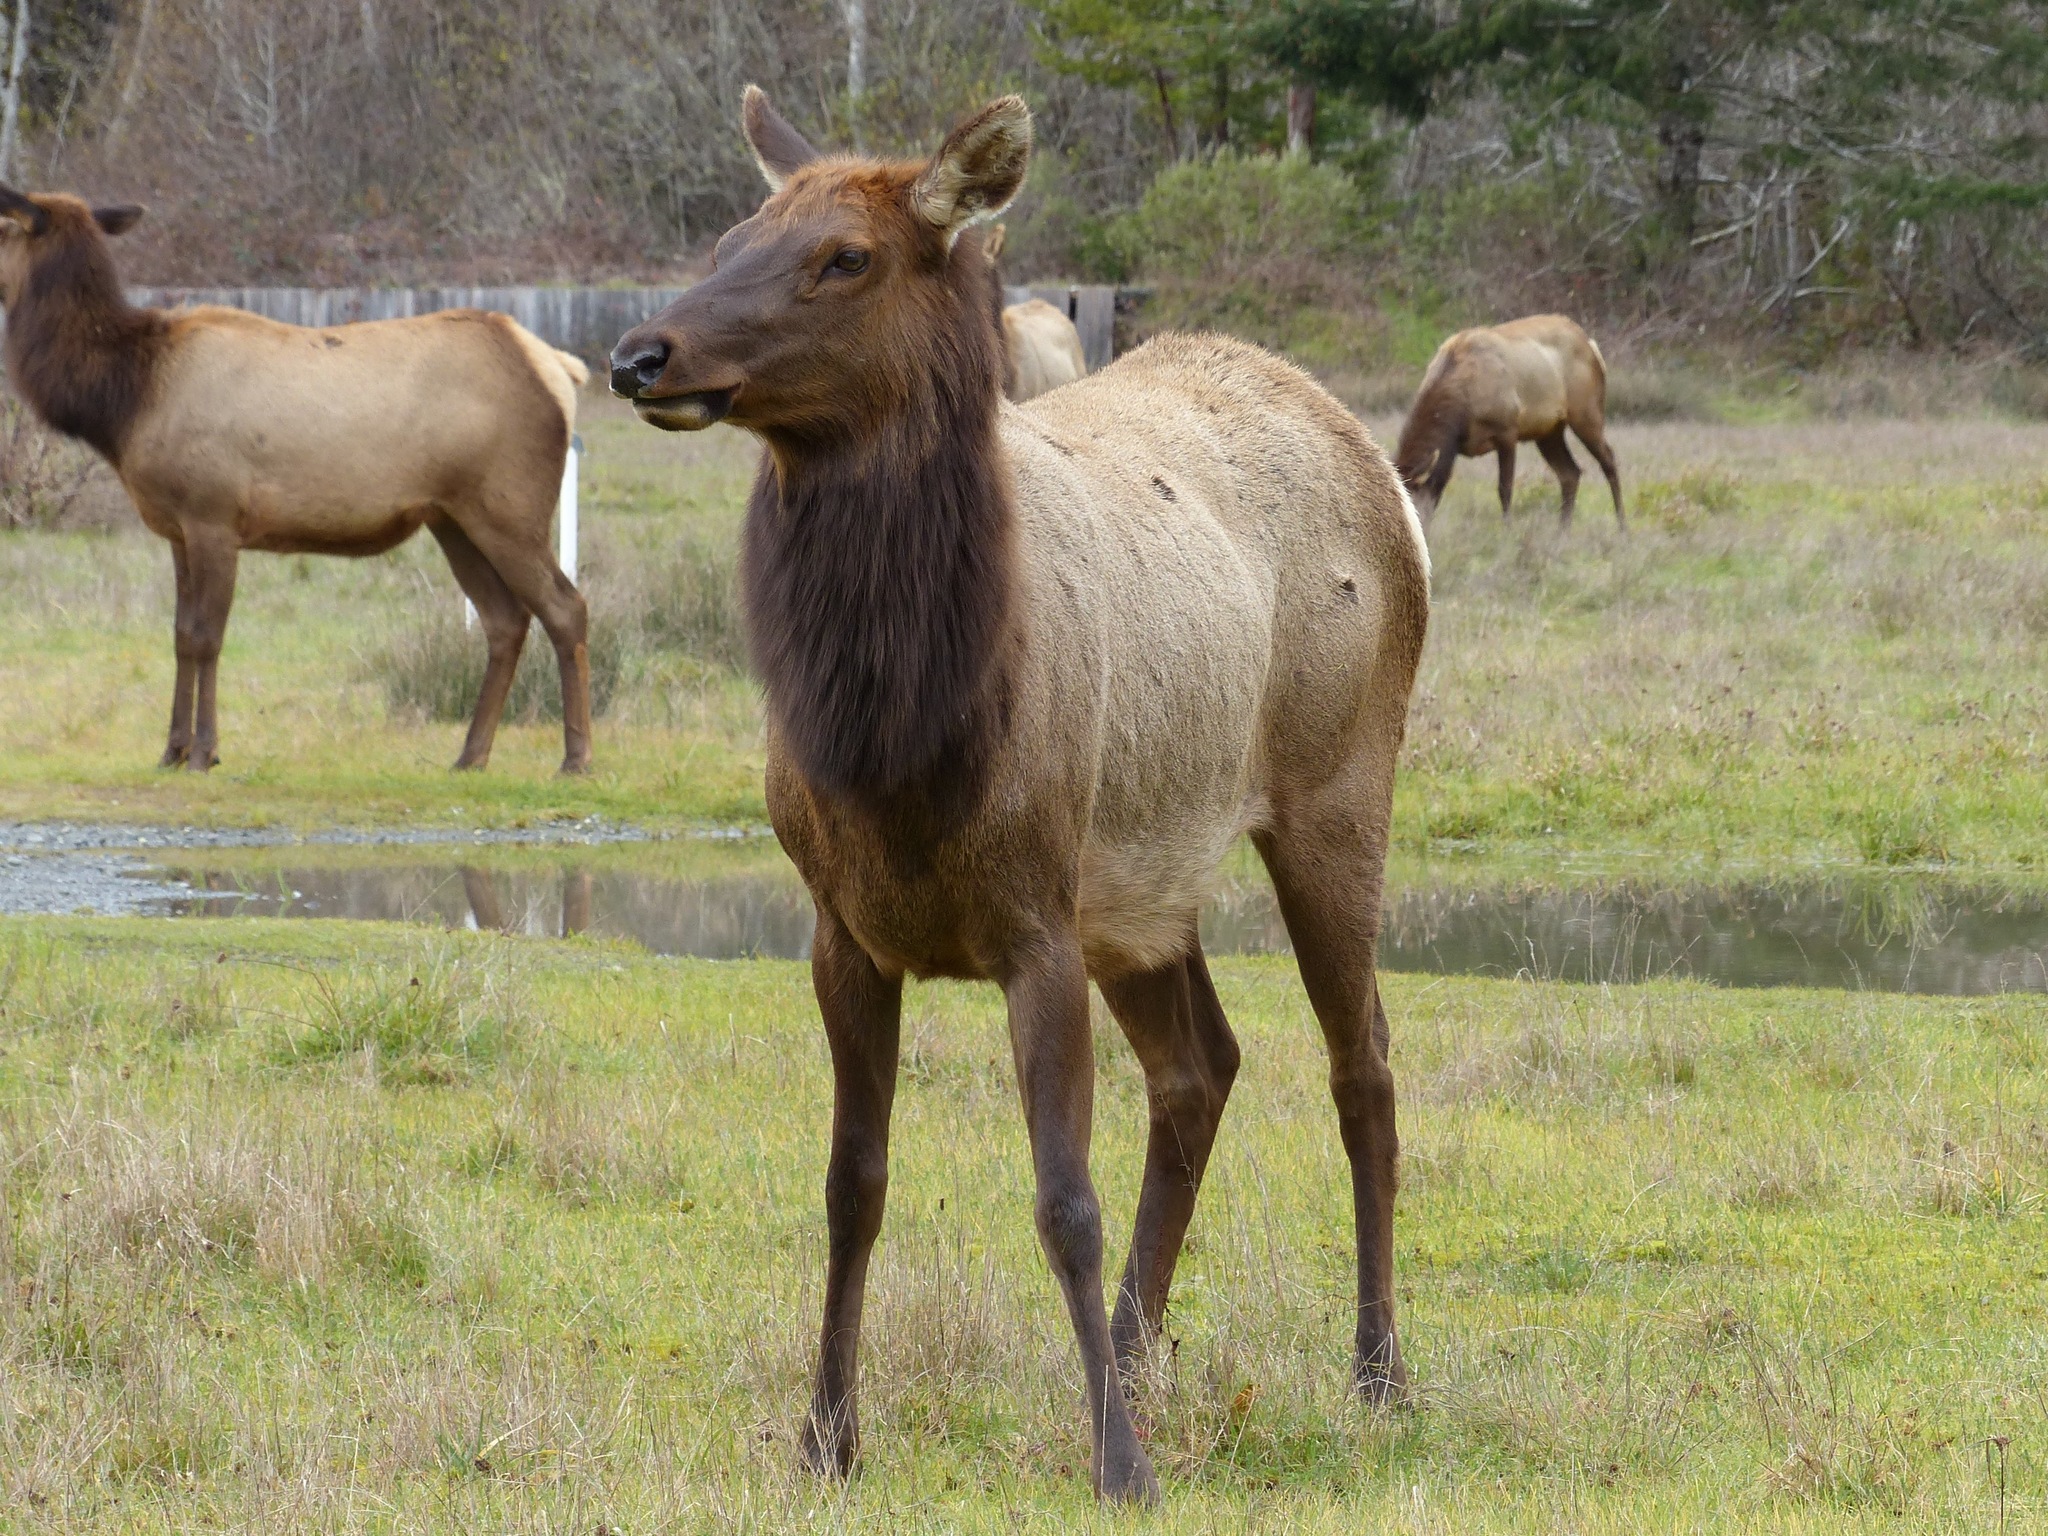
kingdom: Animalia
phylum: Chordata
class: Mammalia
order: Artiodactyla
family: Cervidae
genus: Cervus
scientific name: Cervus elaphus
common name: Red deer
